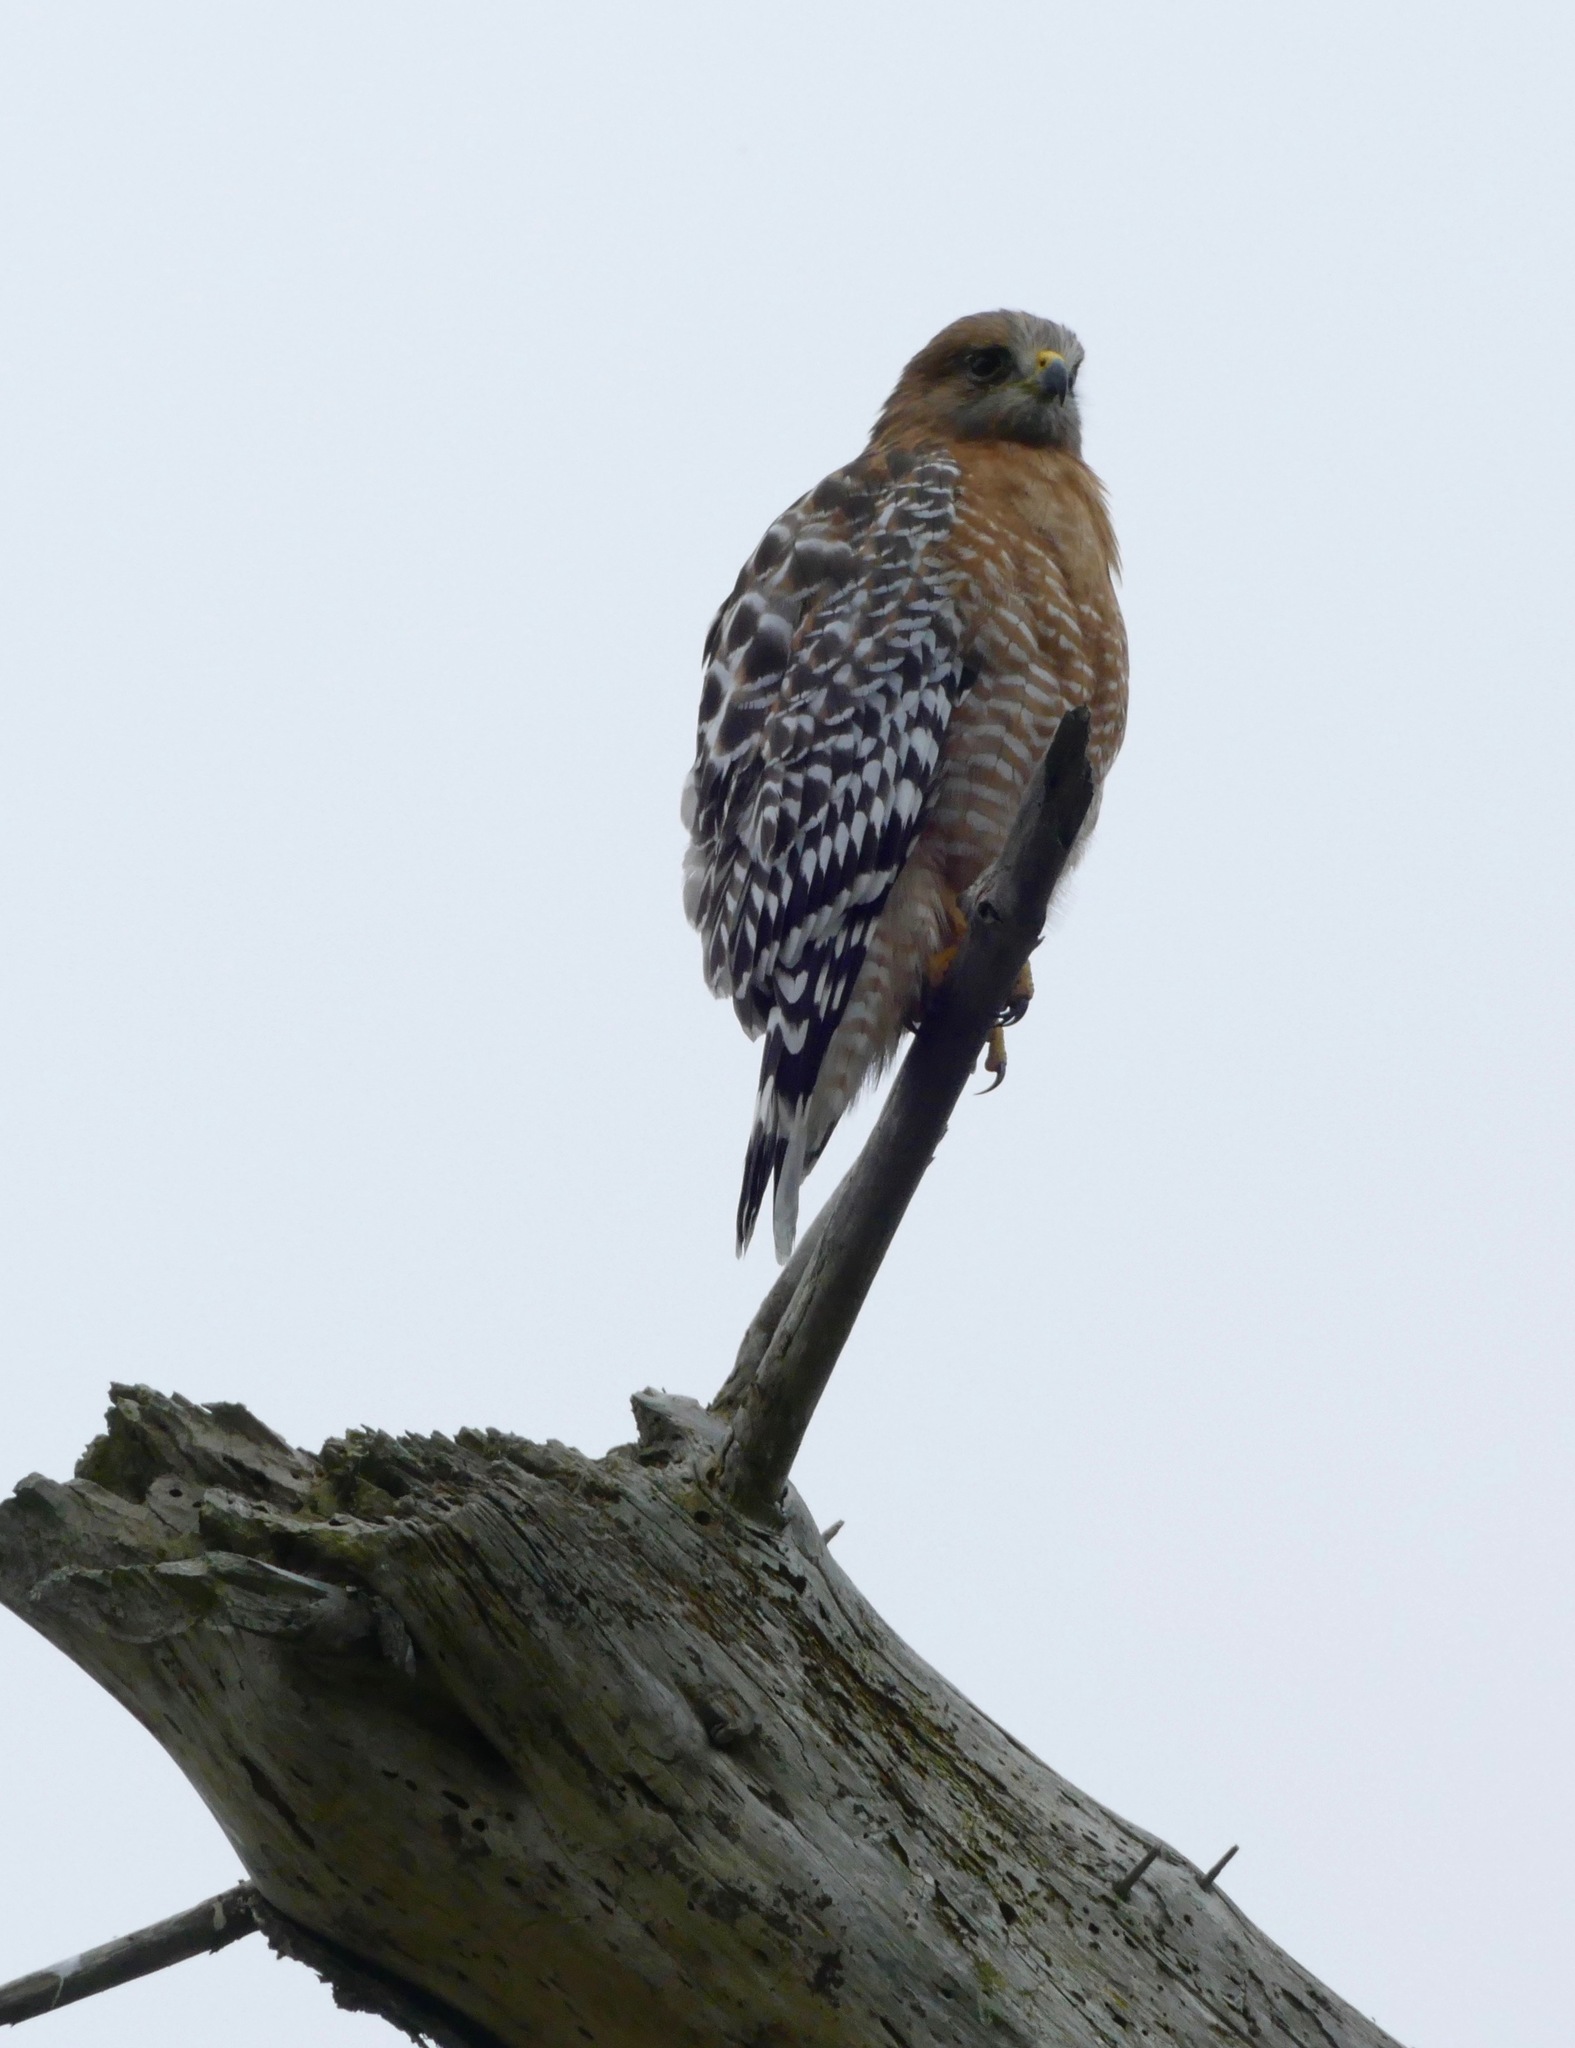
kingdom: Animalia
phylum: Chordata
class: Aves
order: Accipitriformes
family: Accipitridae
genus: Buteo
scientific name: Buteo lineatus
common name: Red-shouldered hawk
